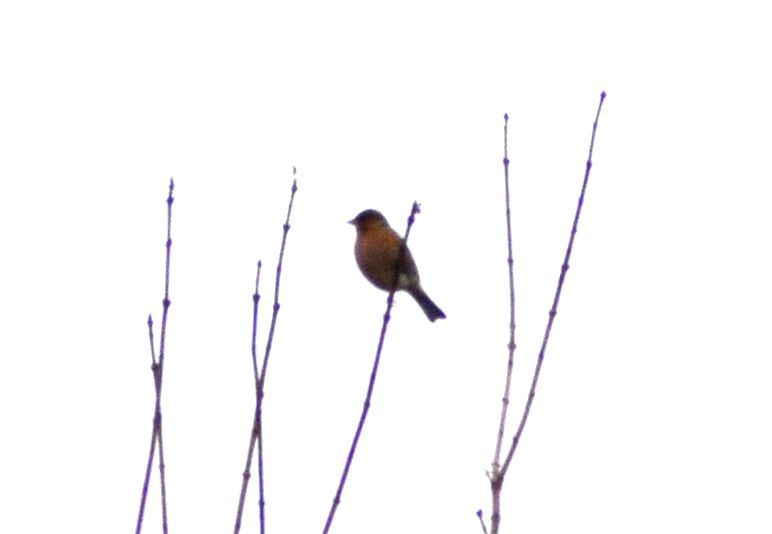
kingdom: Animalia
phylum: Chordata
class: Aves
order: Passeriformes
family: Fringillidae
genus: Fringilla
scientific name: Fringilla coelebs
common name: Common chaffinch
